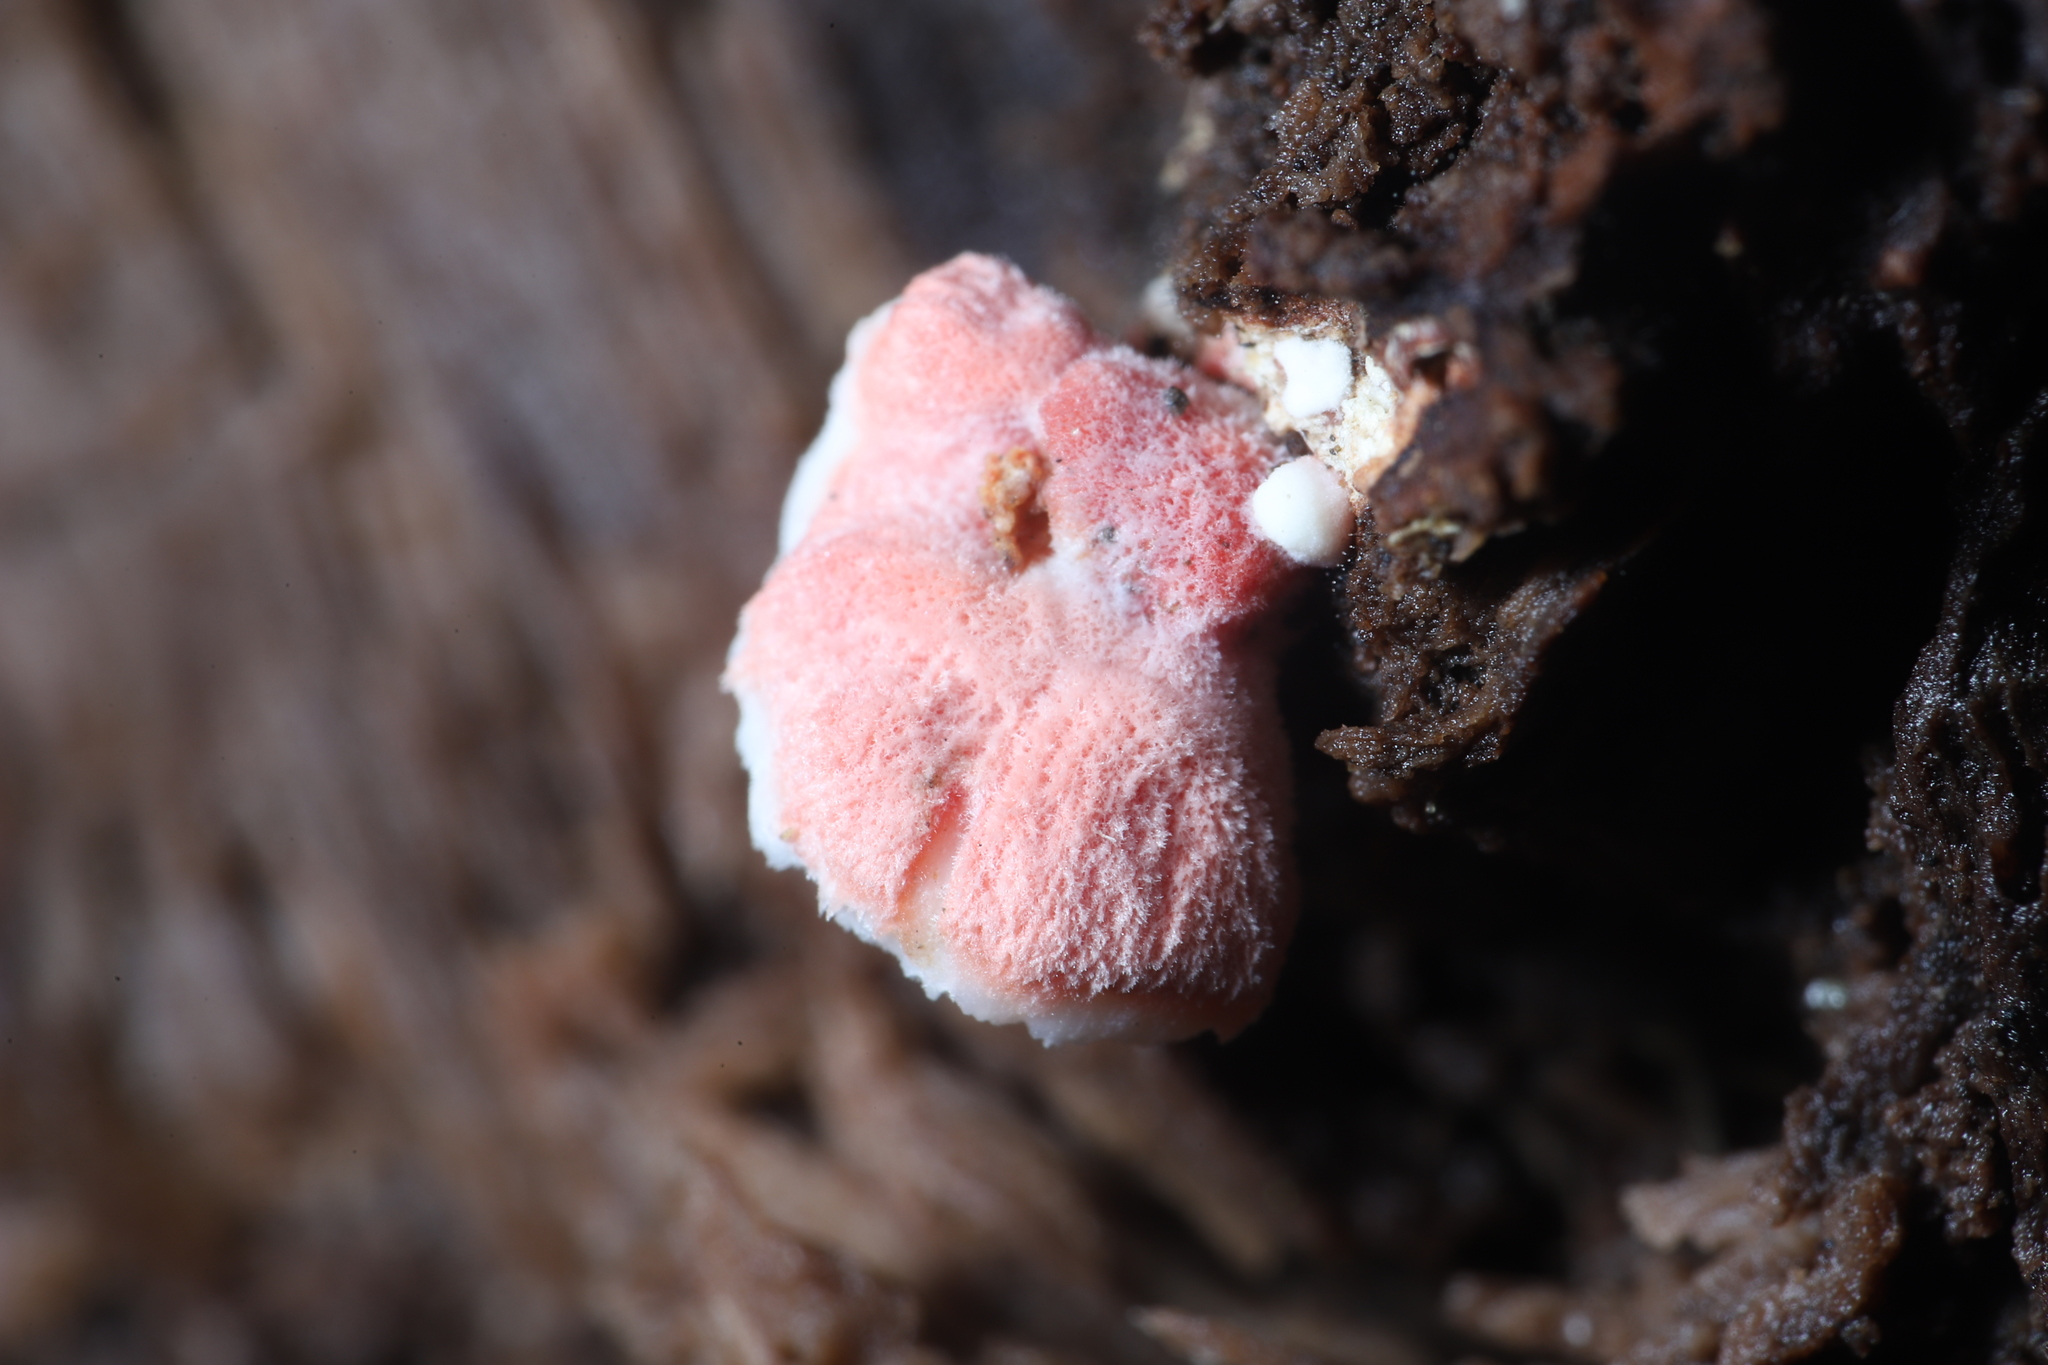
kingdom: Fungi
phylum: Basidiomycota
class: Agaricomycetes
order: Polyporales
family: Irpicaceae
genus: Byssomerulius
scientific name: Byssomerulius incarnatus
